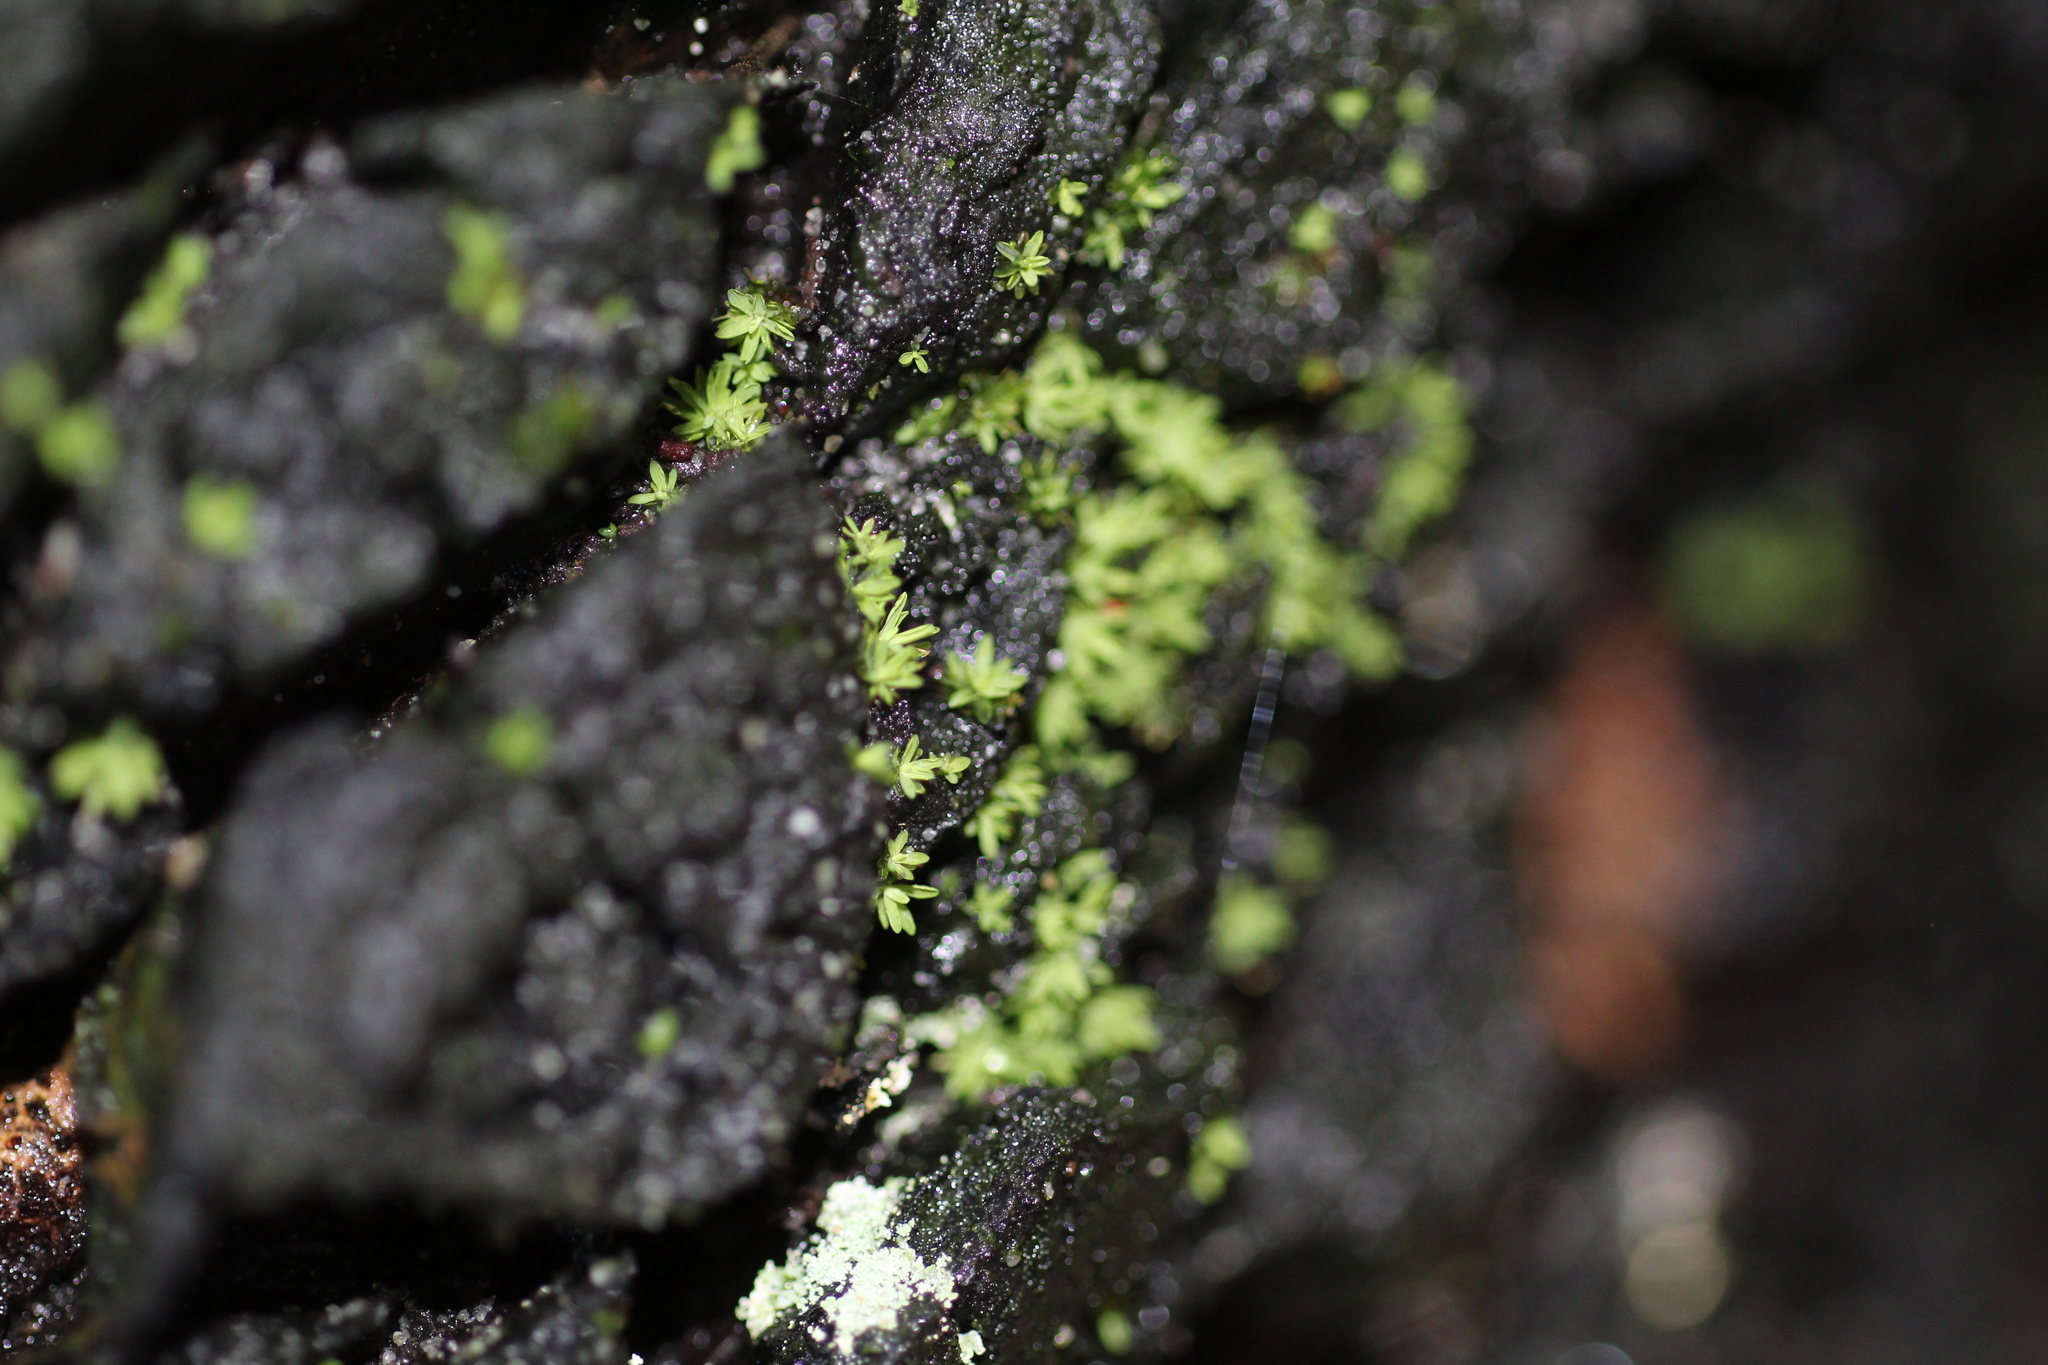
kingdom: Plantae
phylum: Bryophyta
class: Bryopsida
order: Pottiales
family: Pottiaceae
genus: Calymperastrum
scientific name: Calymperastrum latifolium
